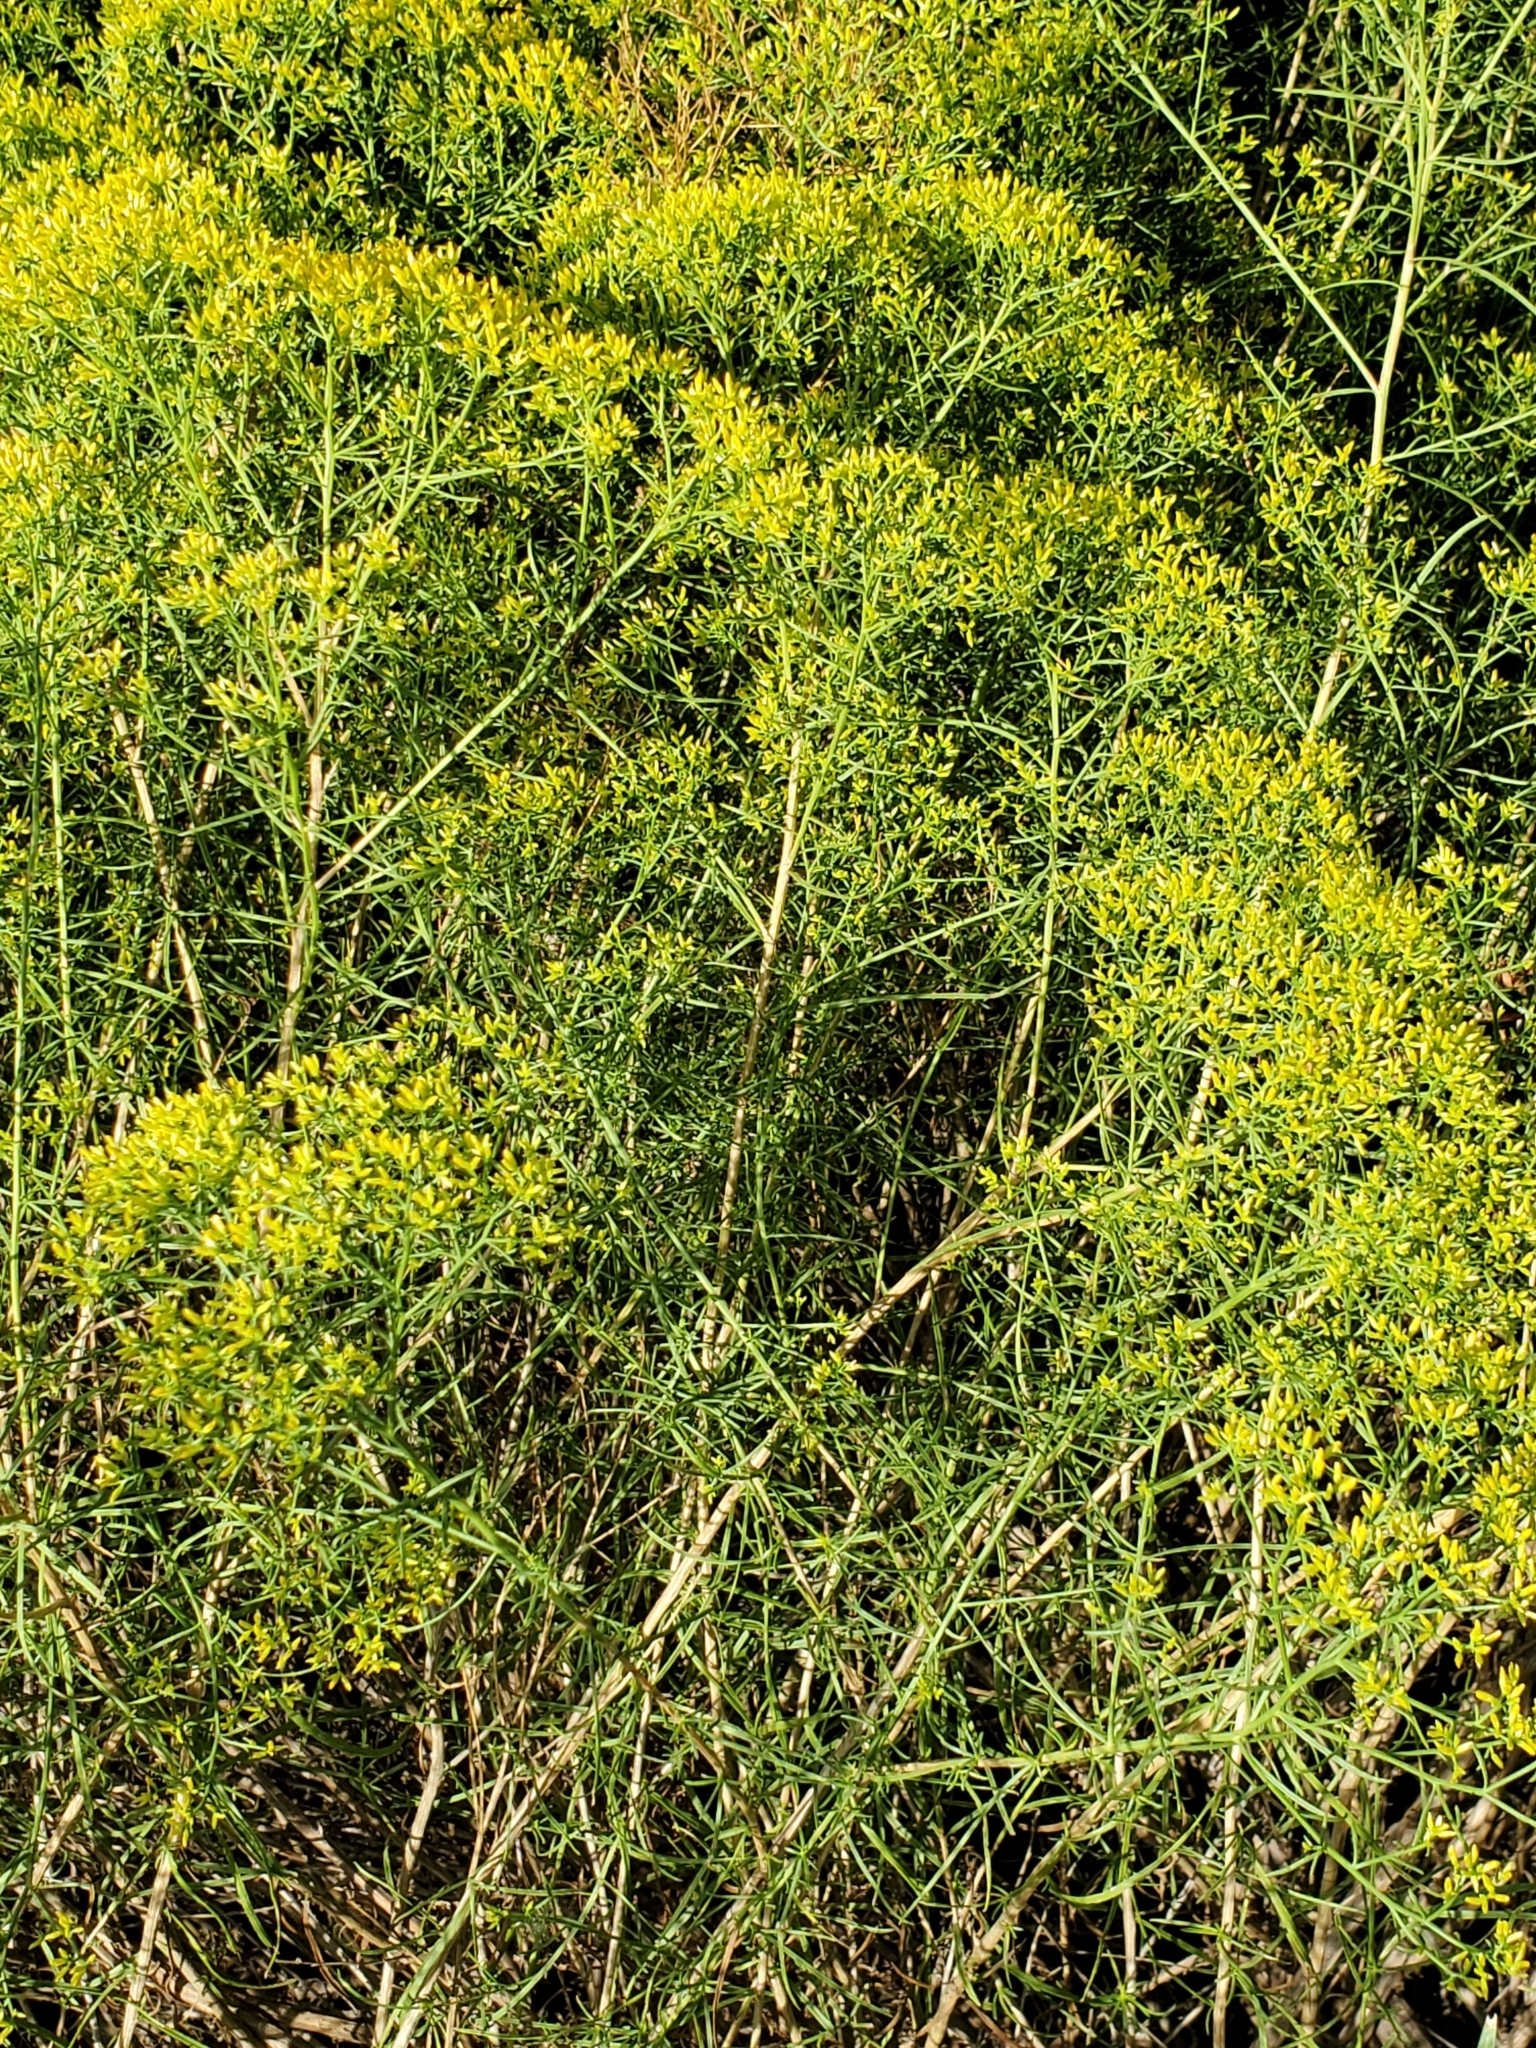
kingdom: Plantae
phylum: Tracheophyta
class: Magnoliopsida
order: Asterales
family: Asteraceae
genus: Gutierrezia
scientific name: Gutierrezia microcephala
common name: Thread snakeweed
